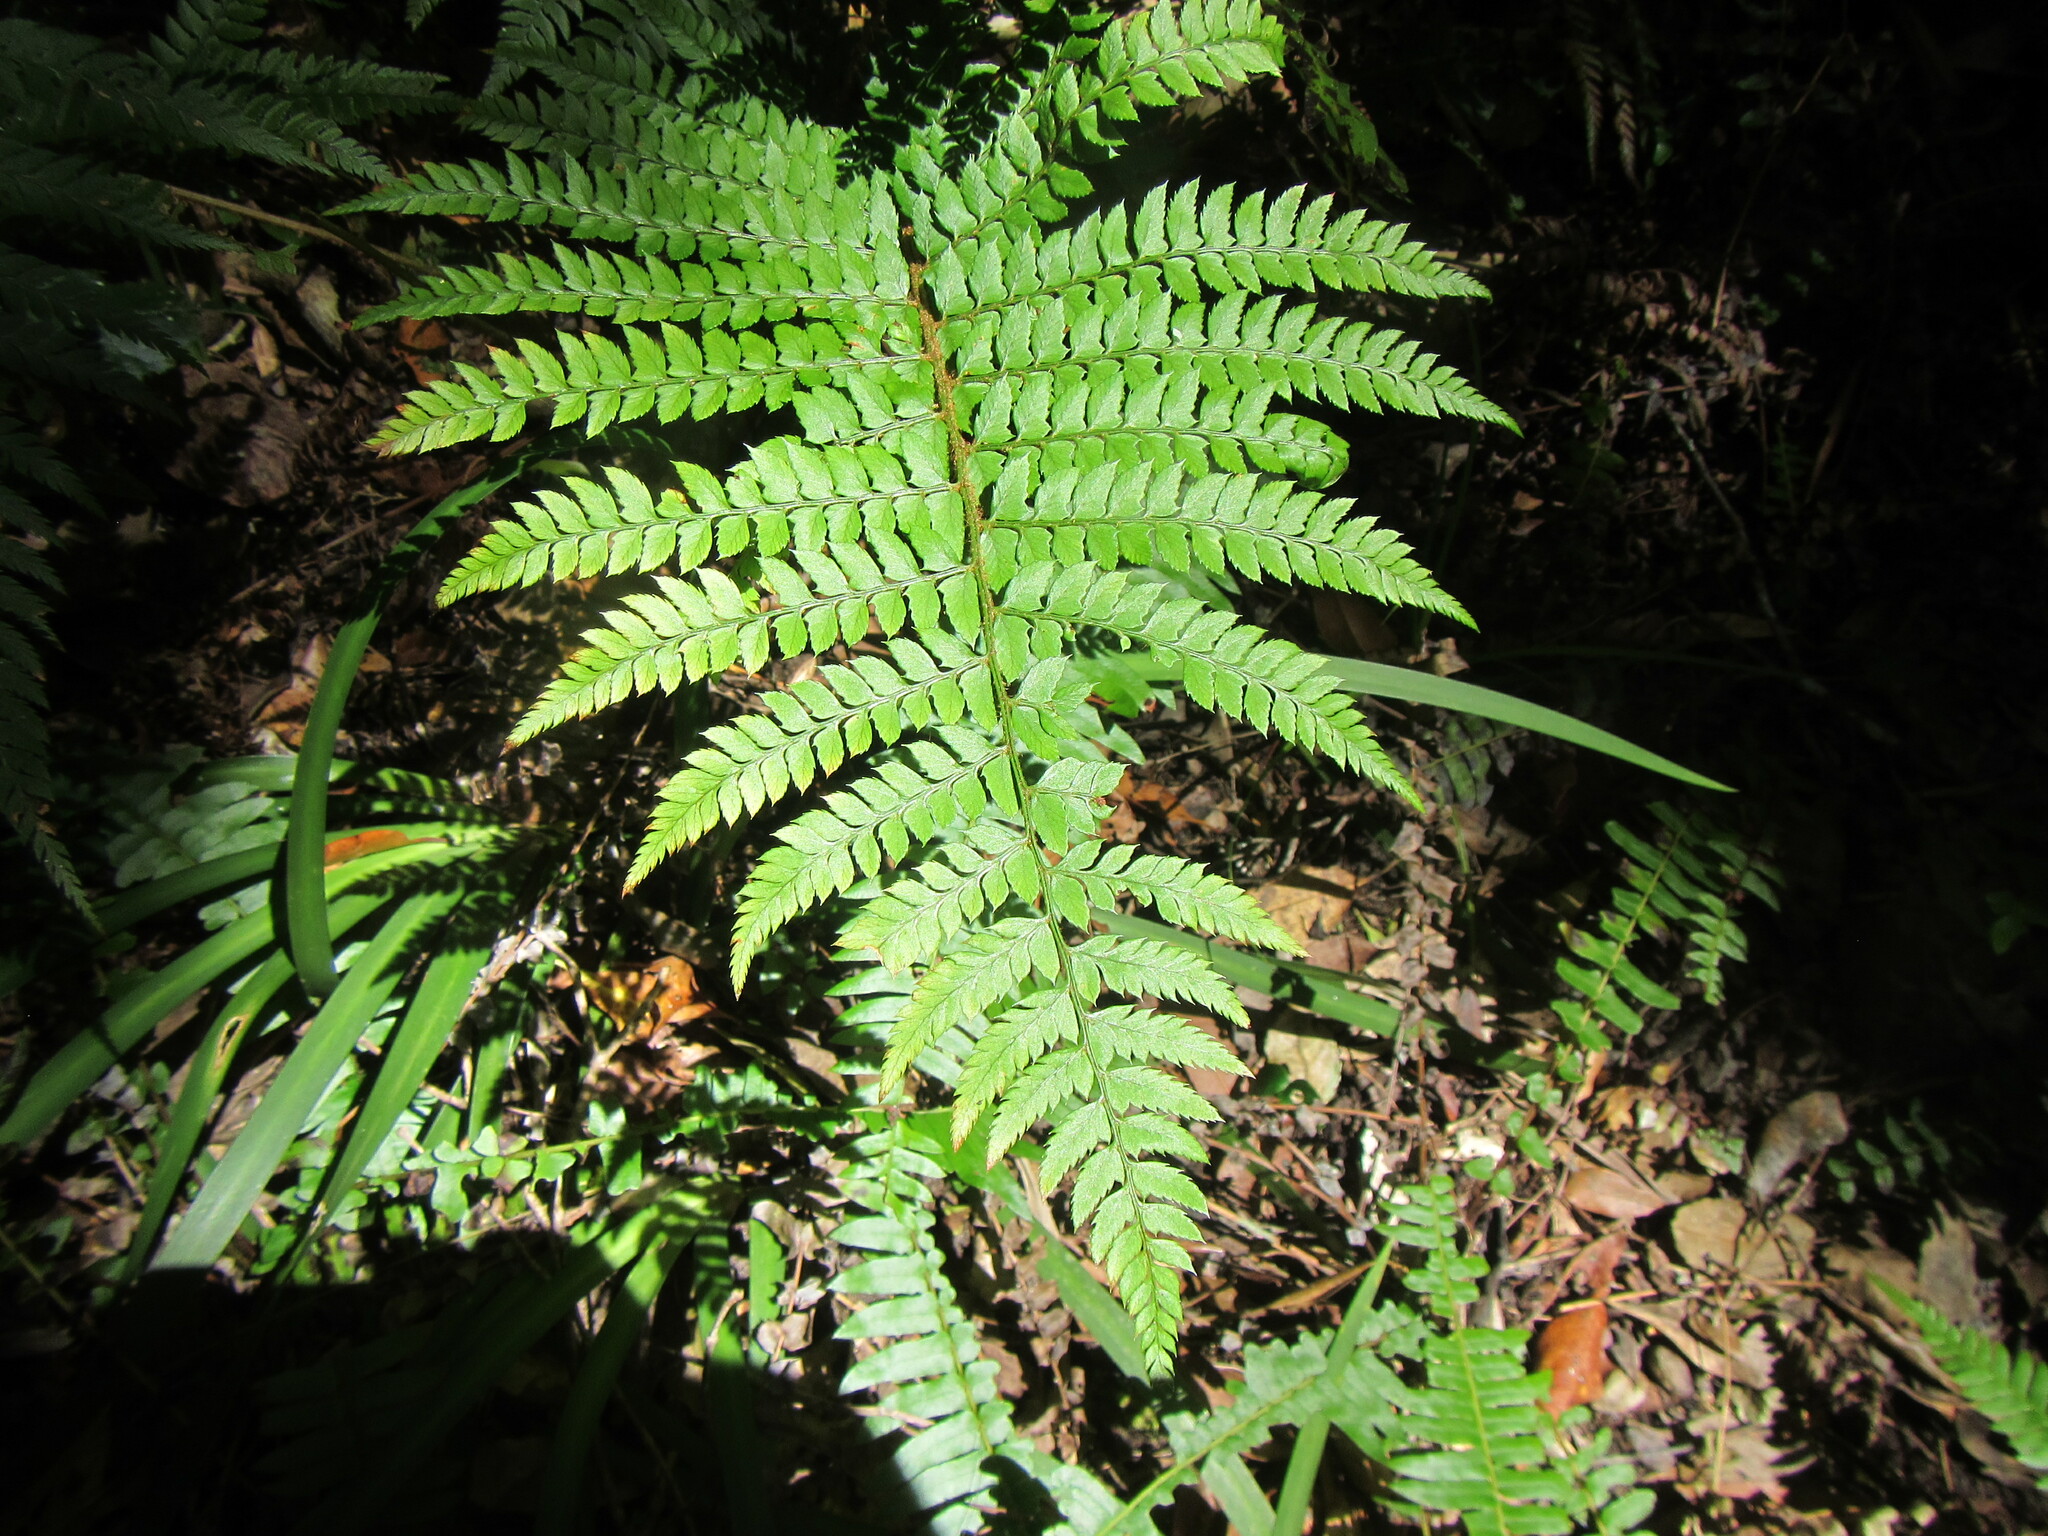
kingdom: Plantae
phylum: Tracheophyta
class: Polypodiopsida
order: Polypodiales
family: Dryopteridaceae
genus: Polystichum
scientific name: Polystichum pungens
